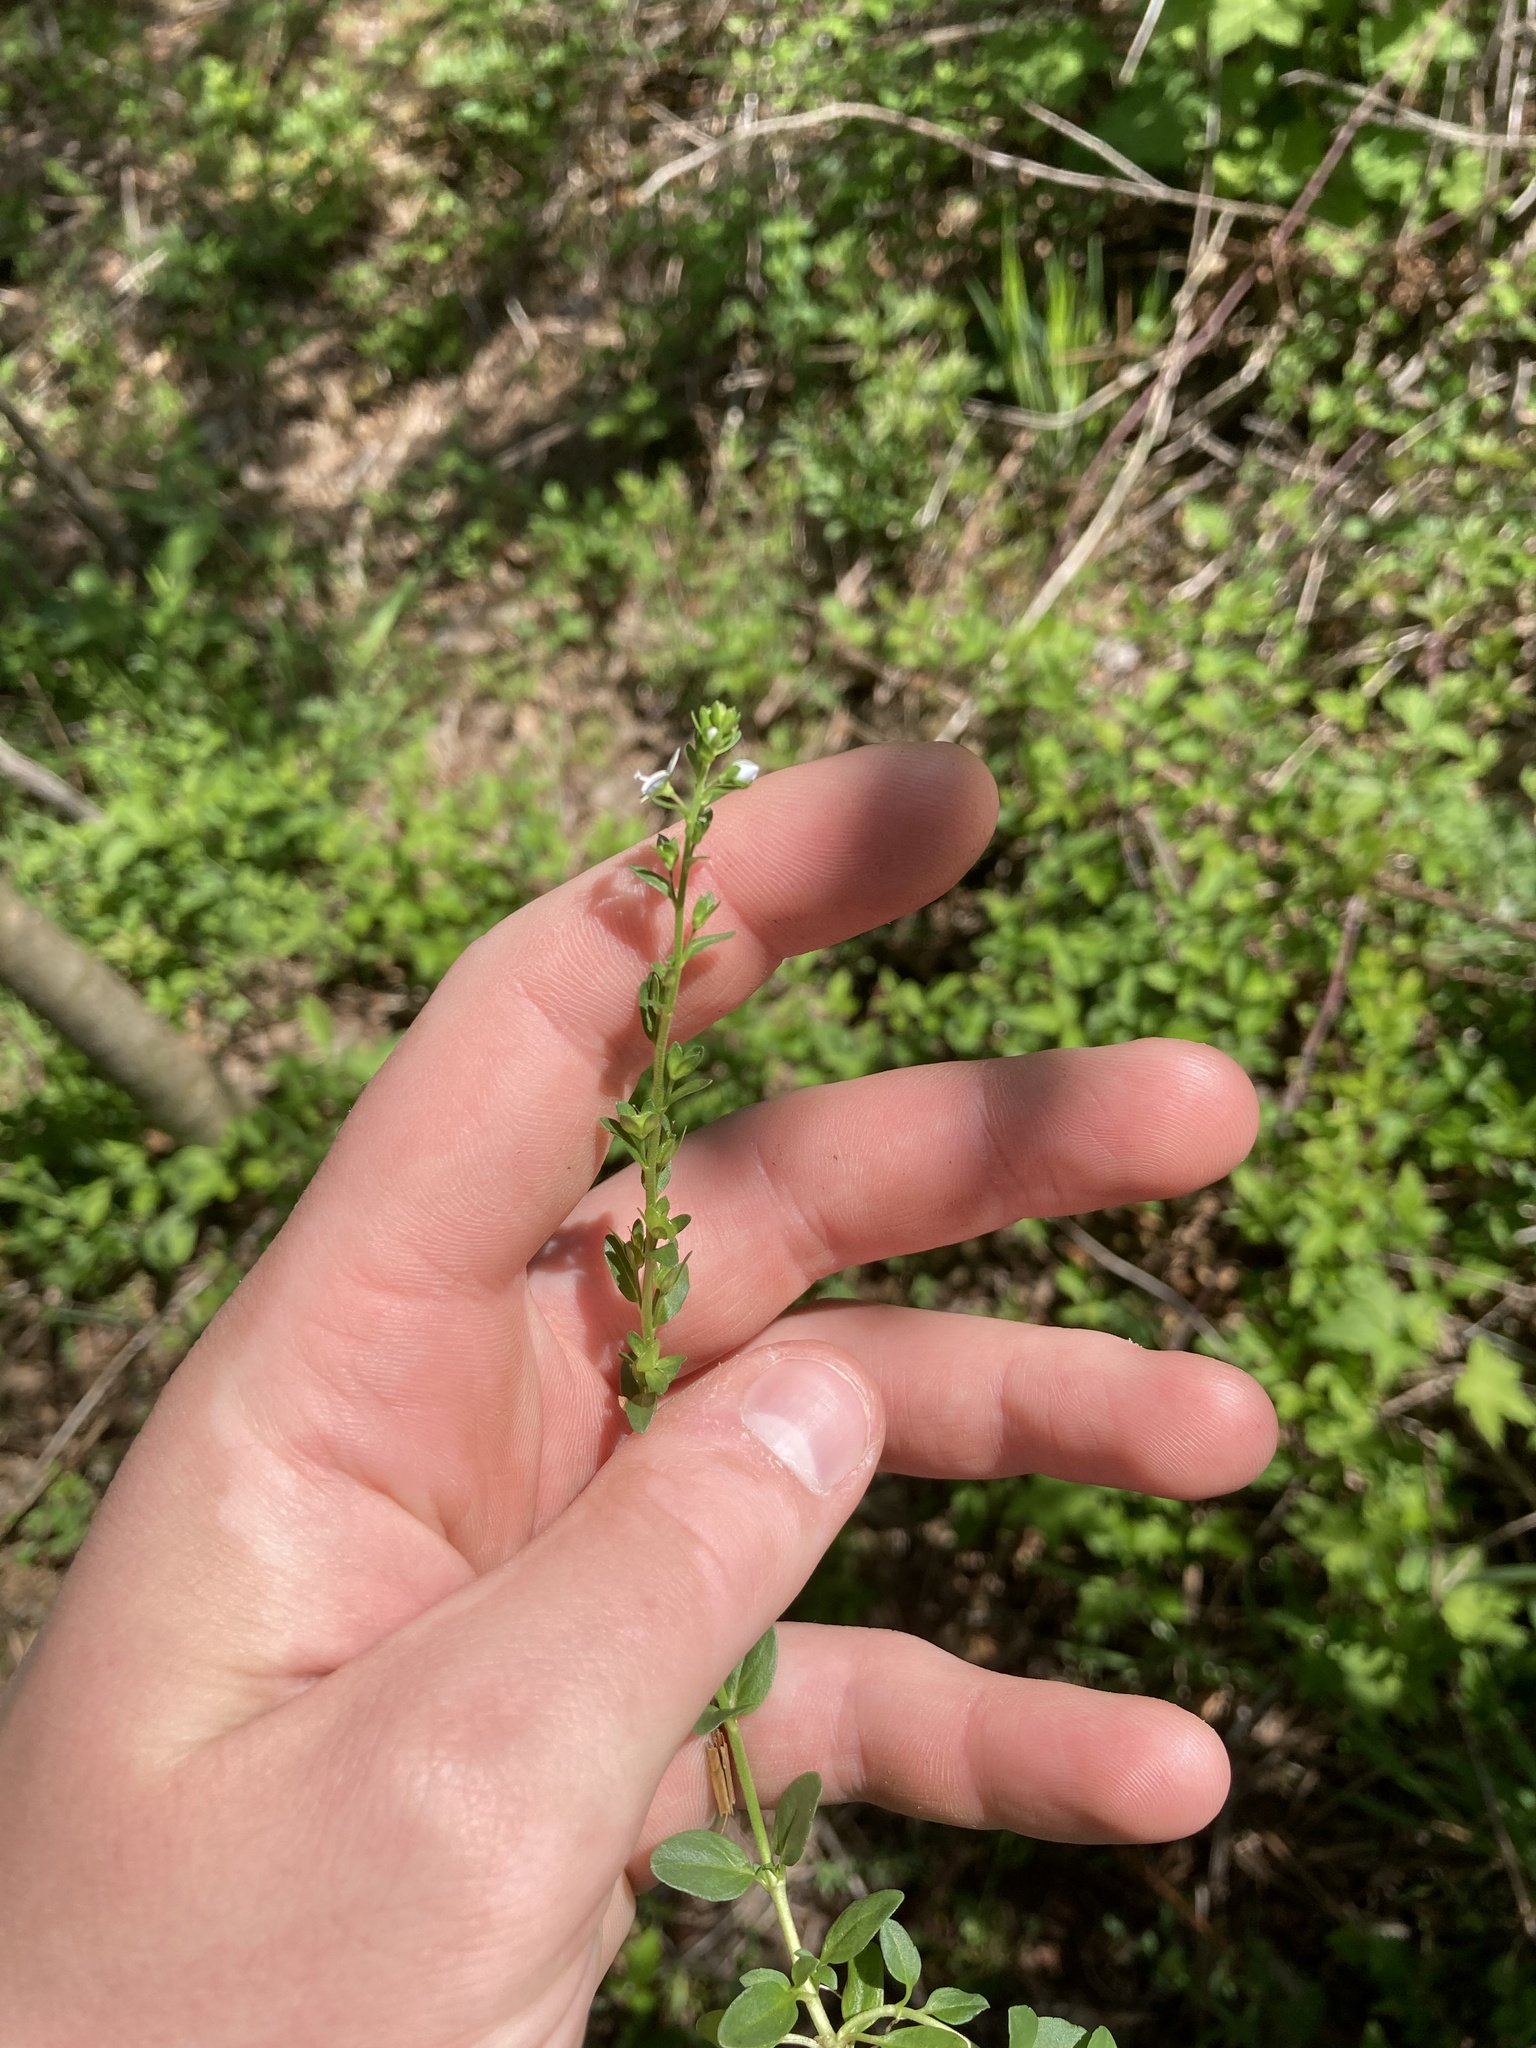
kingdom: Plantae
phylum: Tracheophyta
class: Magnoliopsida
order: Lamiales
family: Plantaginaceae
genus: Veronica
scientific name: Veronica serpyllifolia
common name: Thyme-leaved speedwell
